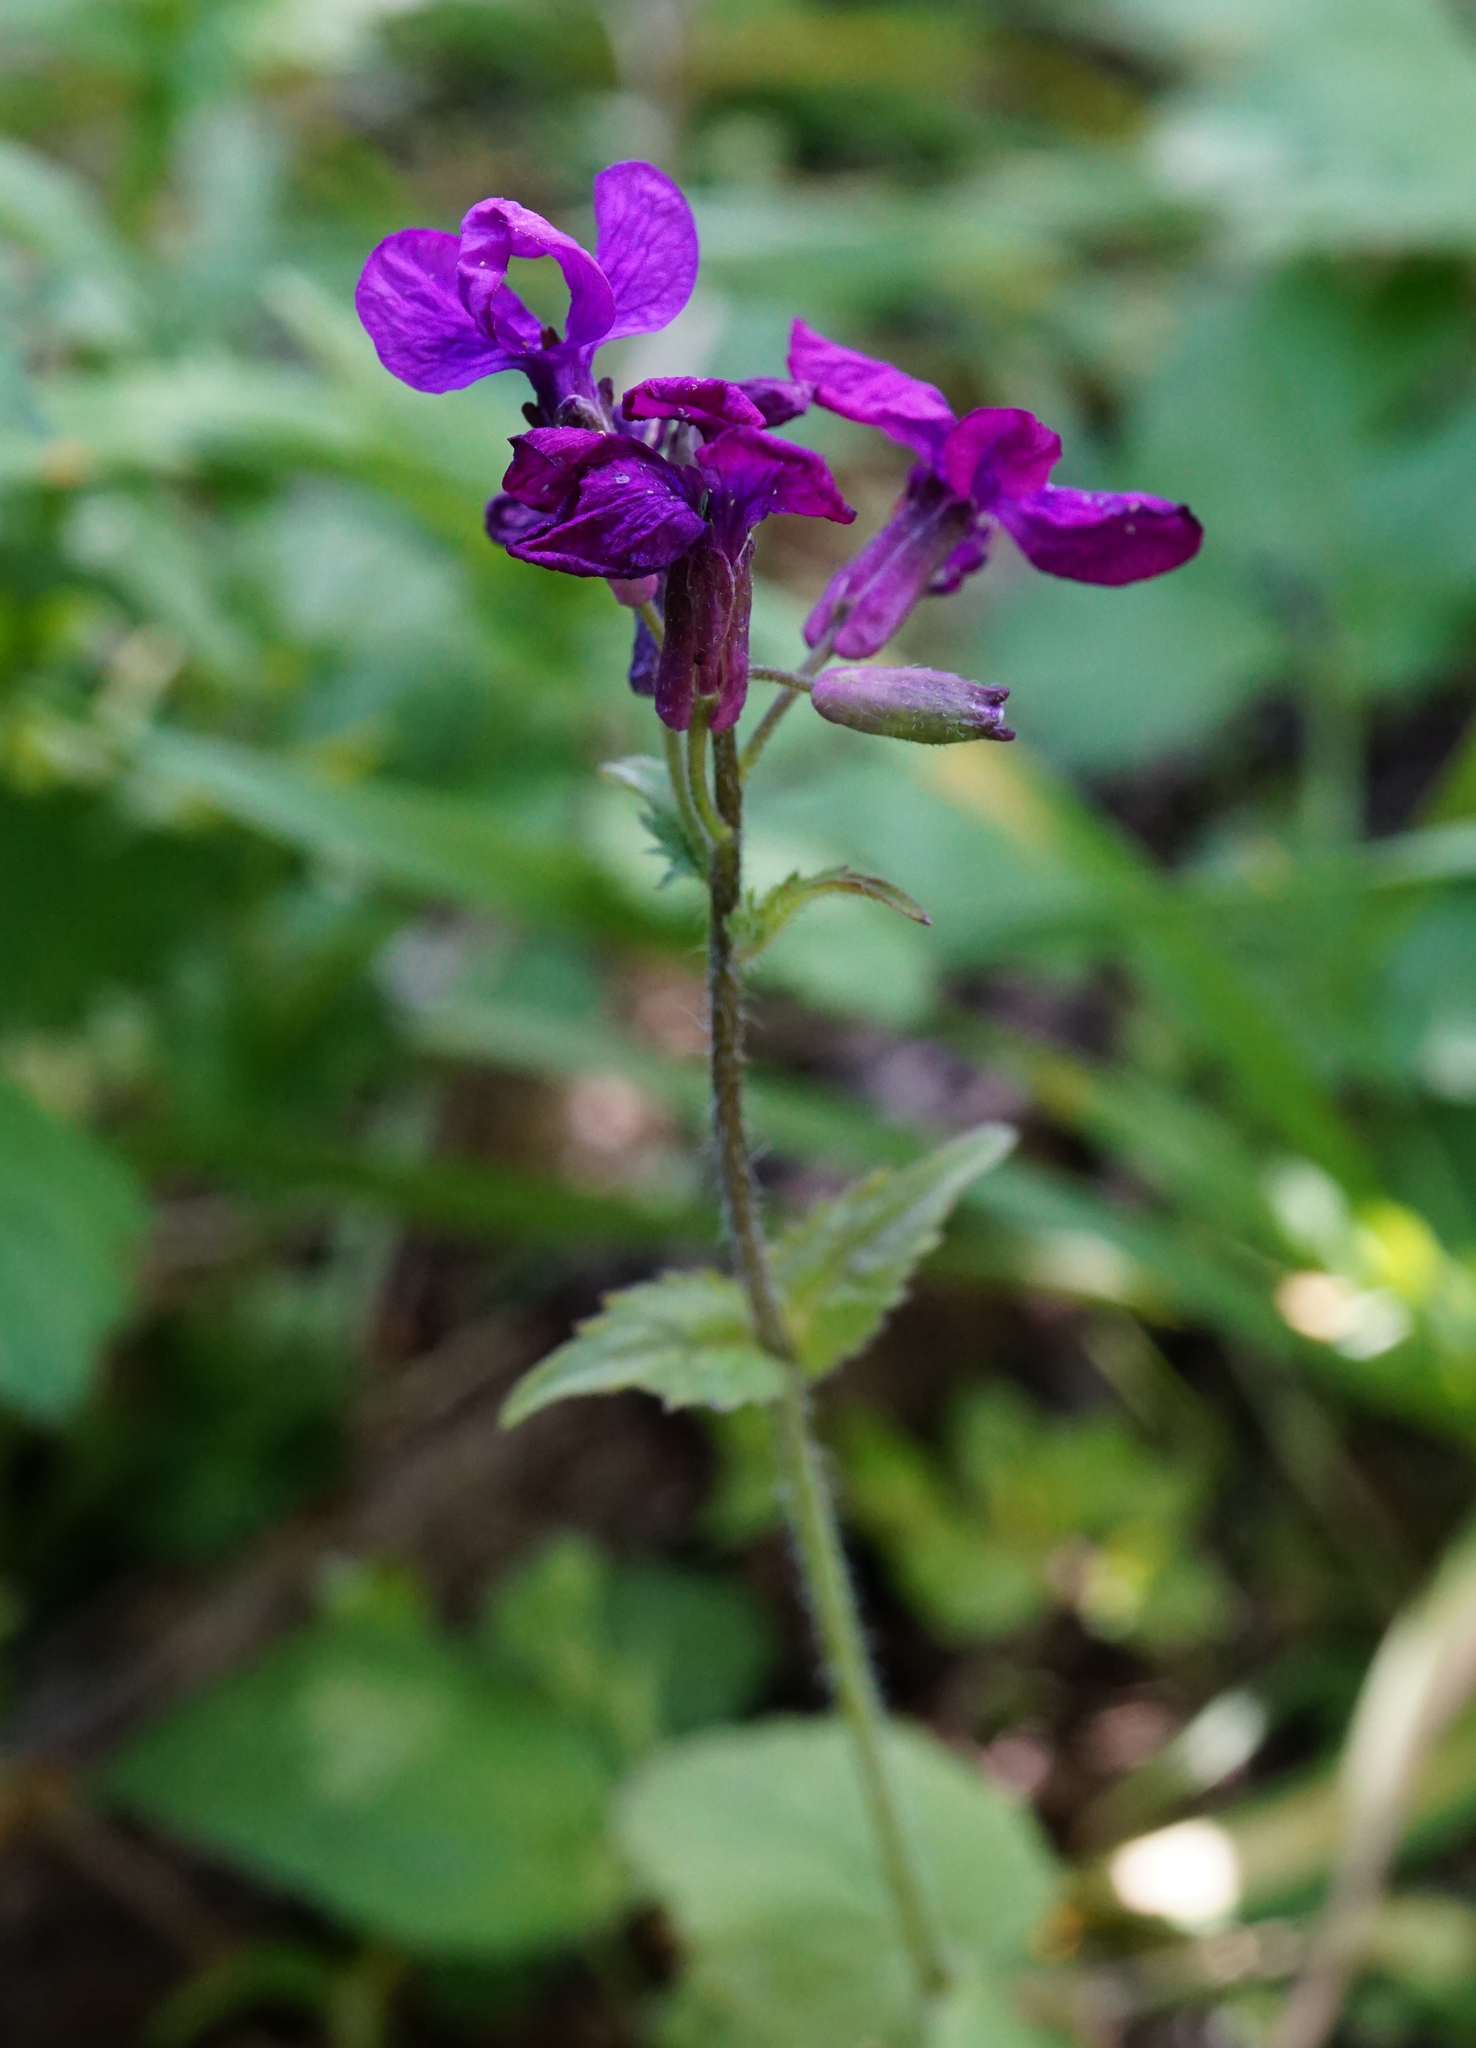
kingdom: Plantae
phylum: Tracheophyta
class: Magnoliopsida
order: Brassicales
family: Brassicaceae
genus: Lunaria
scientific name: Lunaria annua
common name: Honesty
